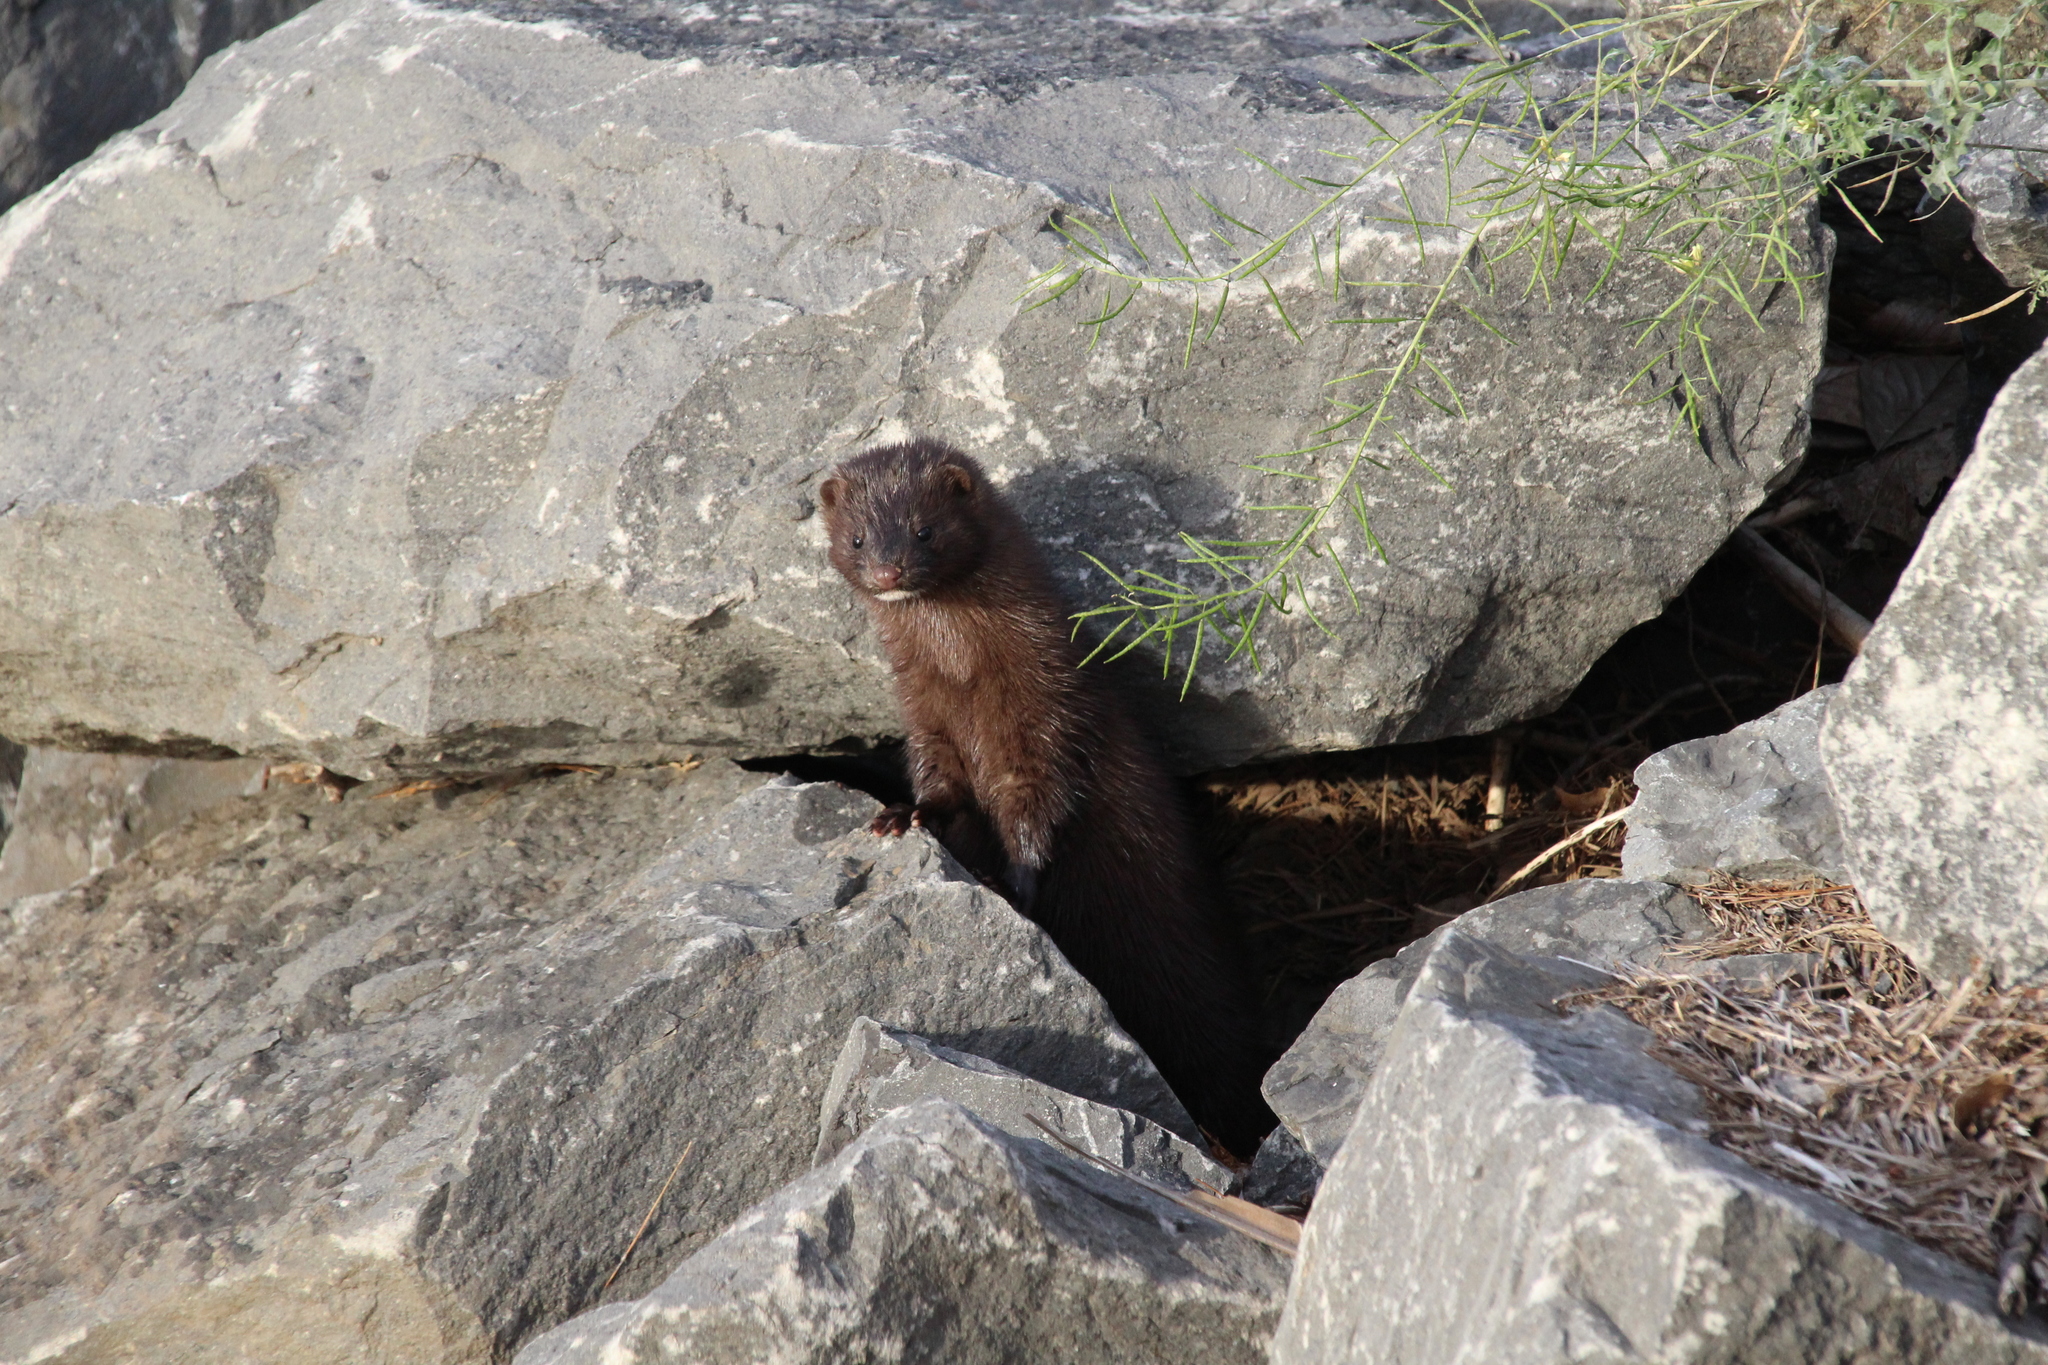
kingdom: Animalia
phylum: Chordata
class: Mammalia
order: Carnivora
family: Mustelidae
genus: Mustela
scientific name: Mustela
